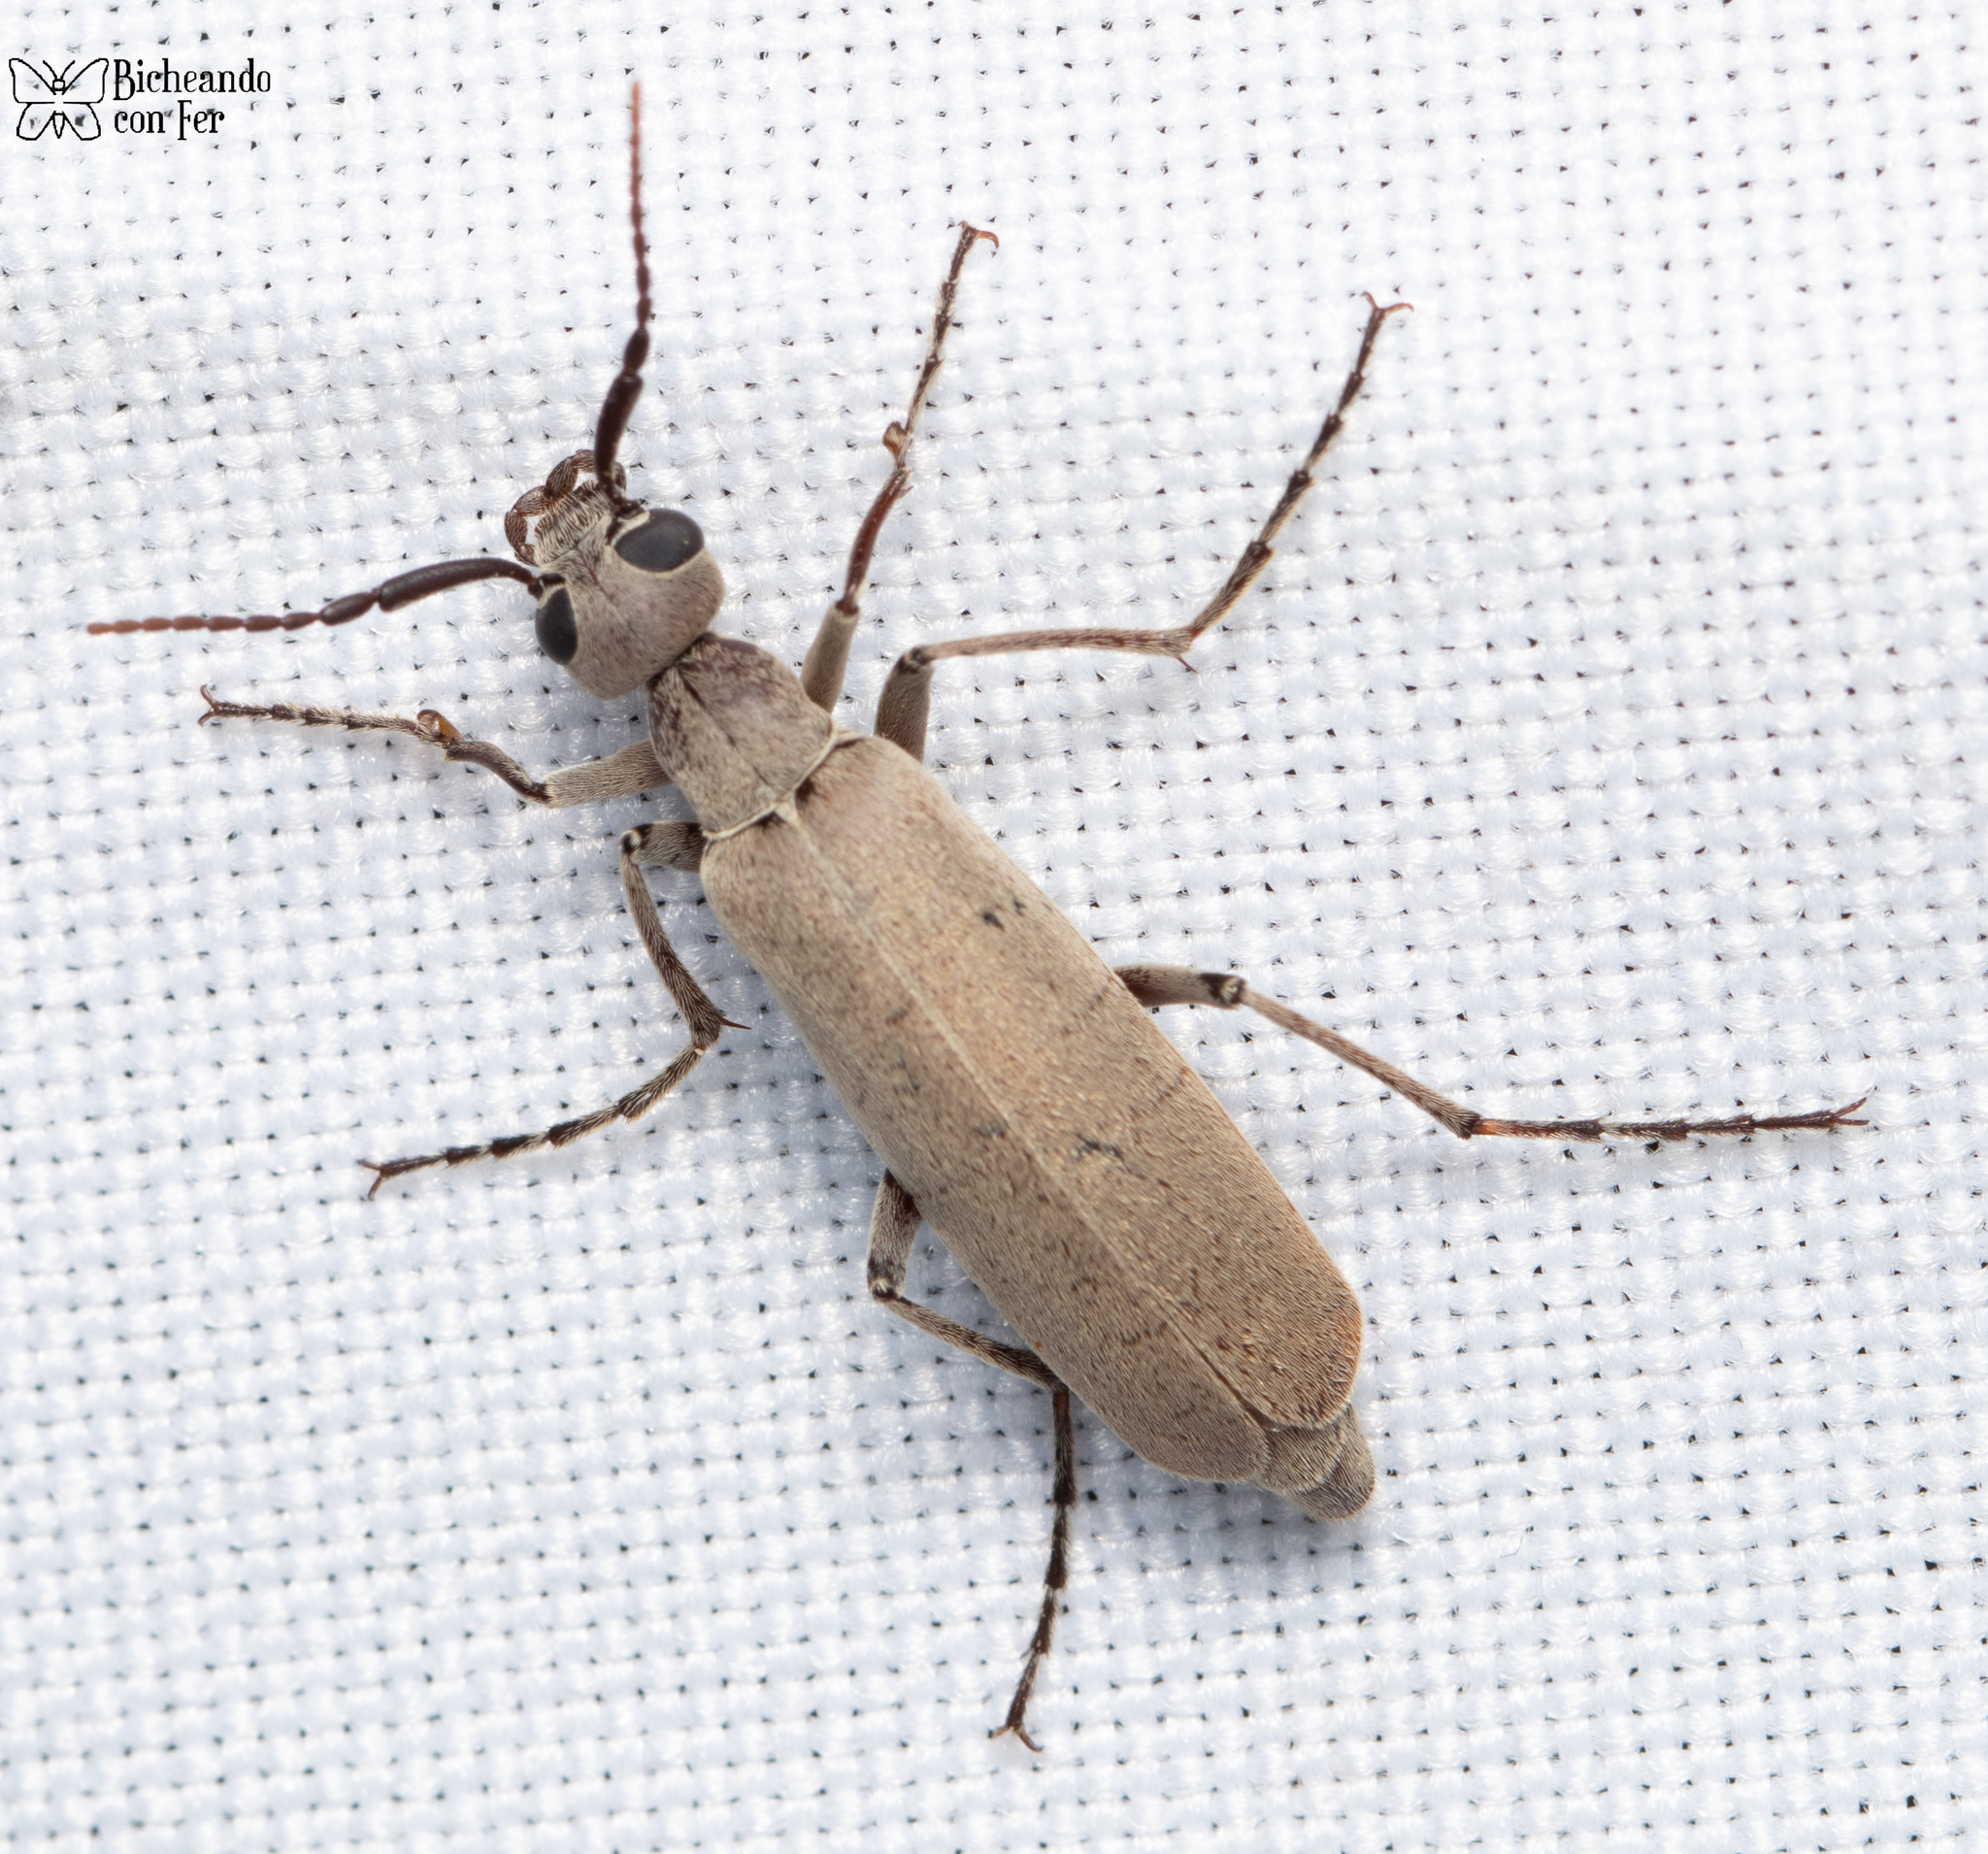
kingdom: Animalia
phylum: Arthropoda
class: Insecta
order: Coleoptera
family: Meloidae
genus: Epicauta
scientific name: Epicauta diversicornis
